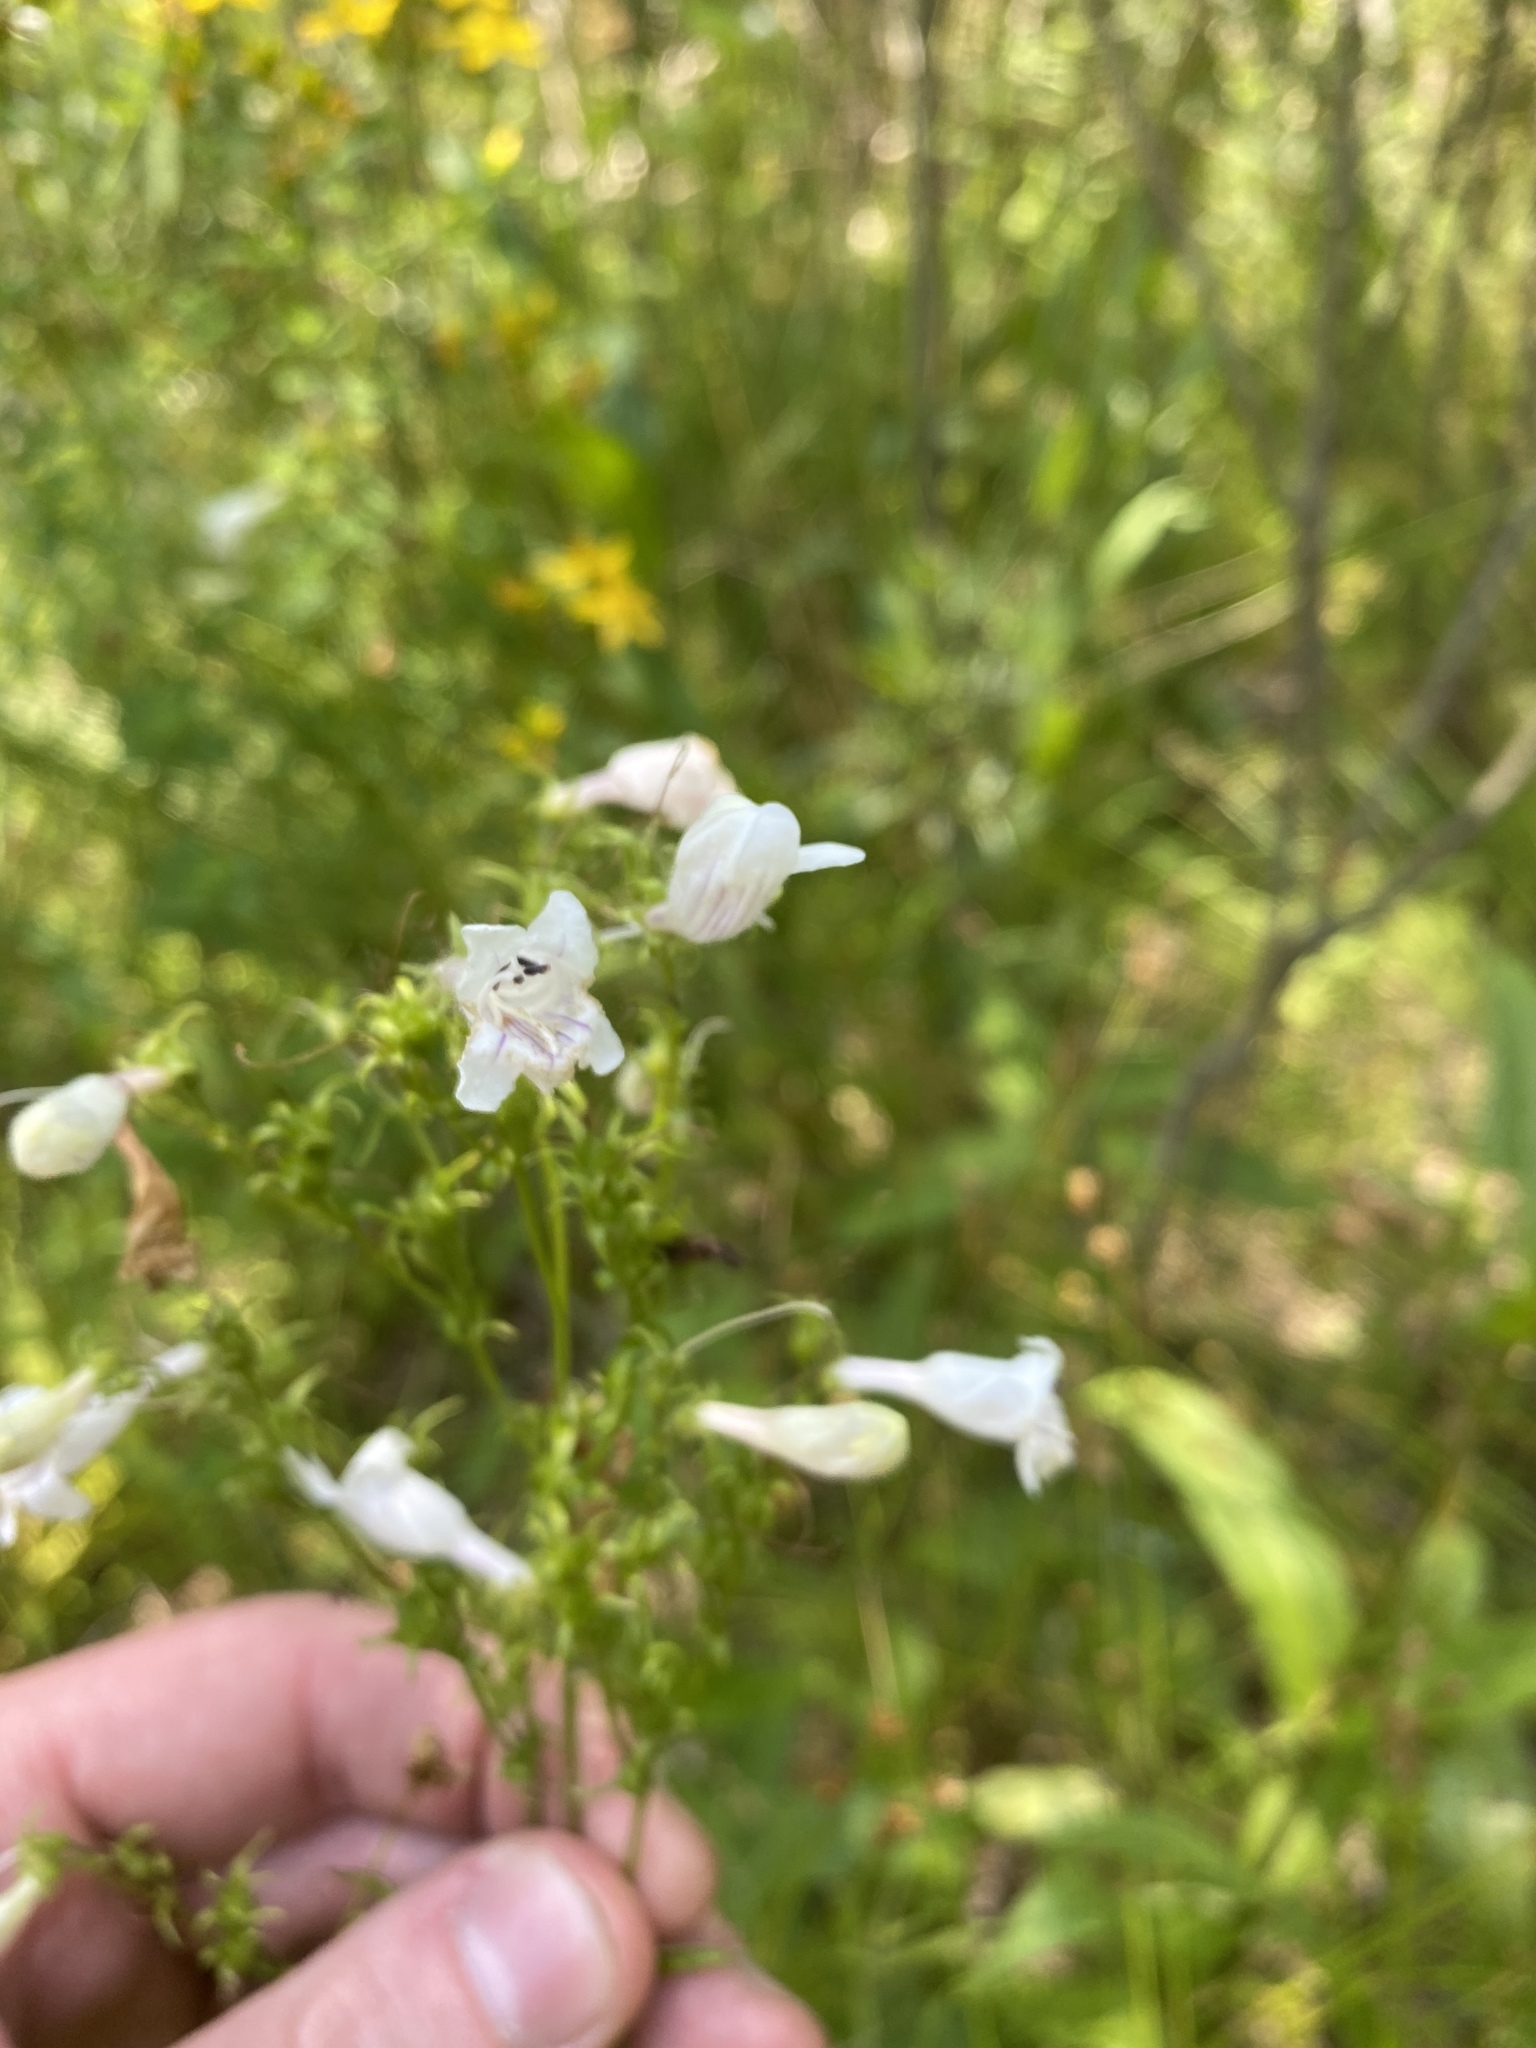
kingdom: Plantae
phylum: Tracheophyta
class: Magnoliopsida
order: Lamiales
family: Plantaginaceae
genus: Penstemon
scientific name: Penstemon digitalis
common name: Foxglove beardtongue
